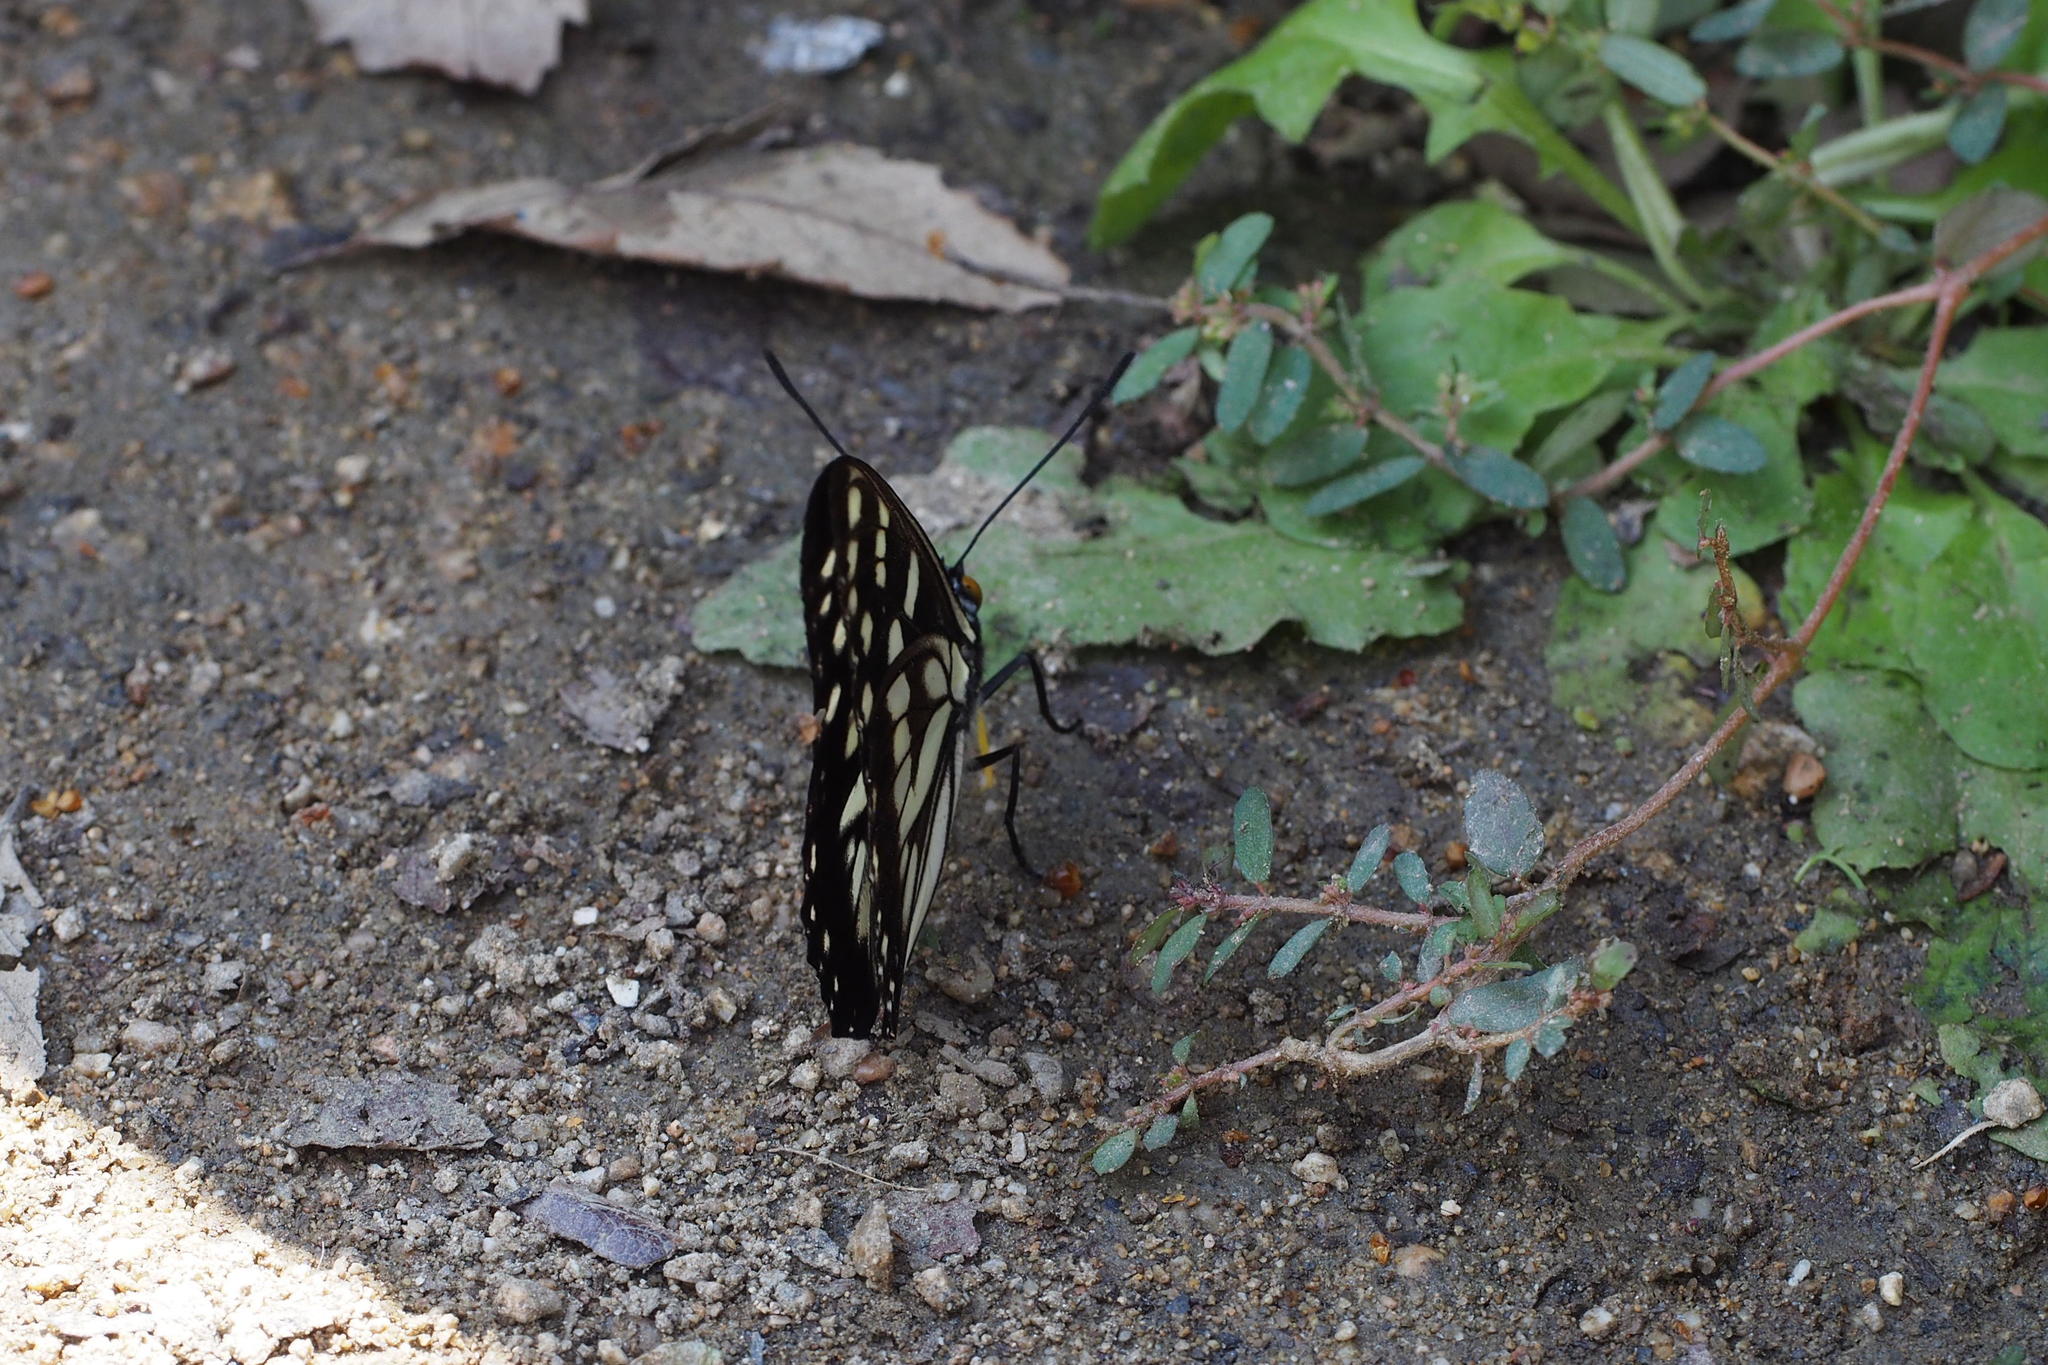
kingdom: Animalia
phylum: Arthropoda
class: Insecta
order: Lepidoptera
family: Nymphalidae
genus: Hestina
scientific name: Hestina persimilis
